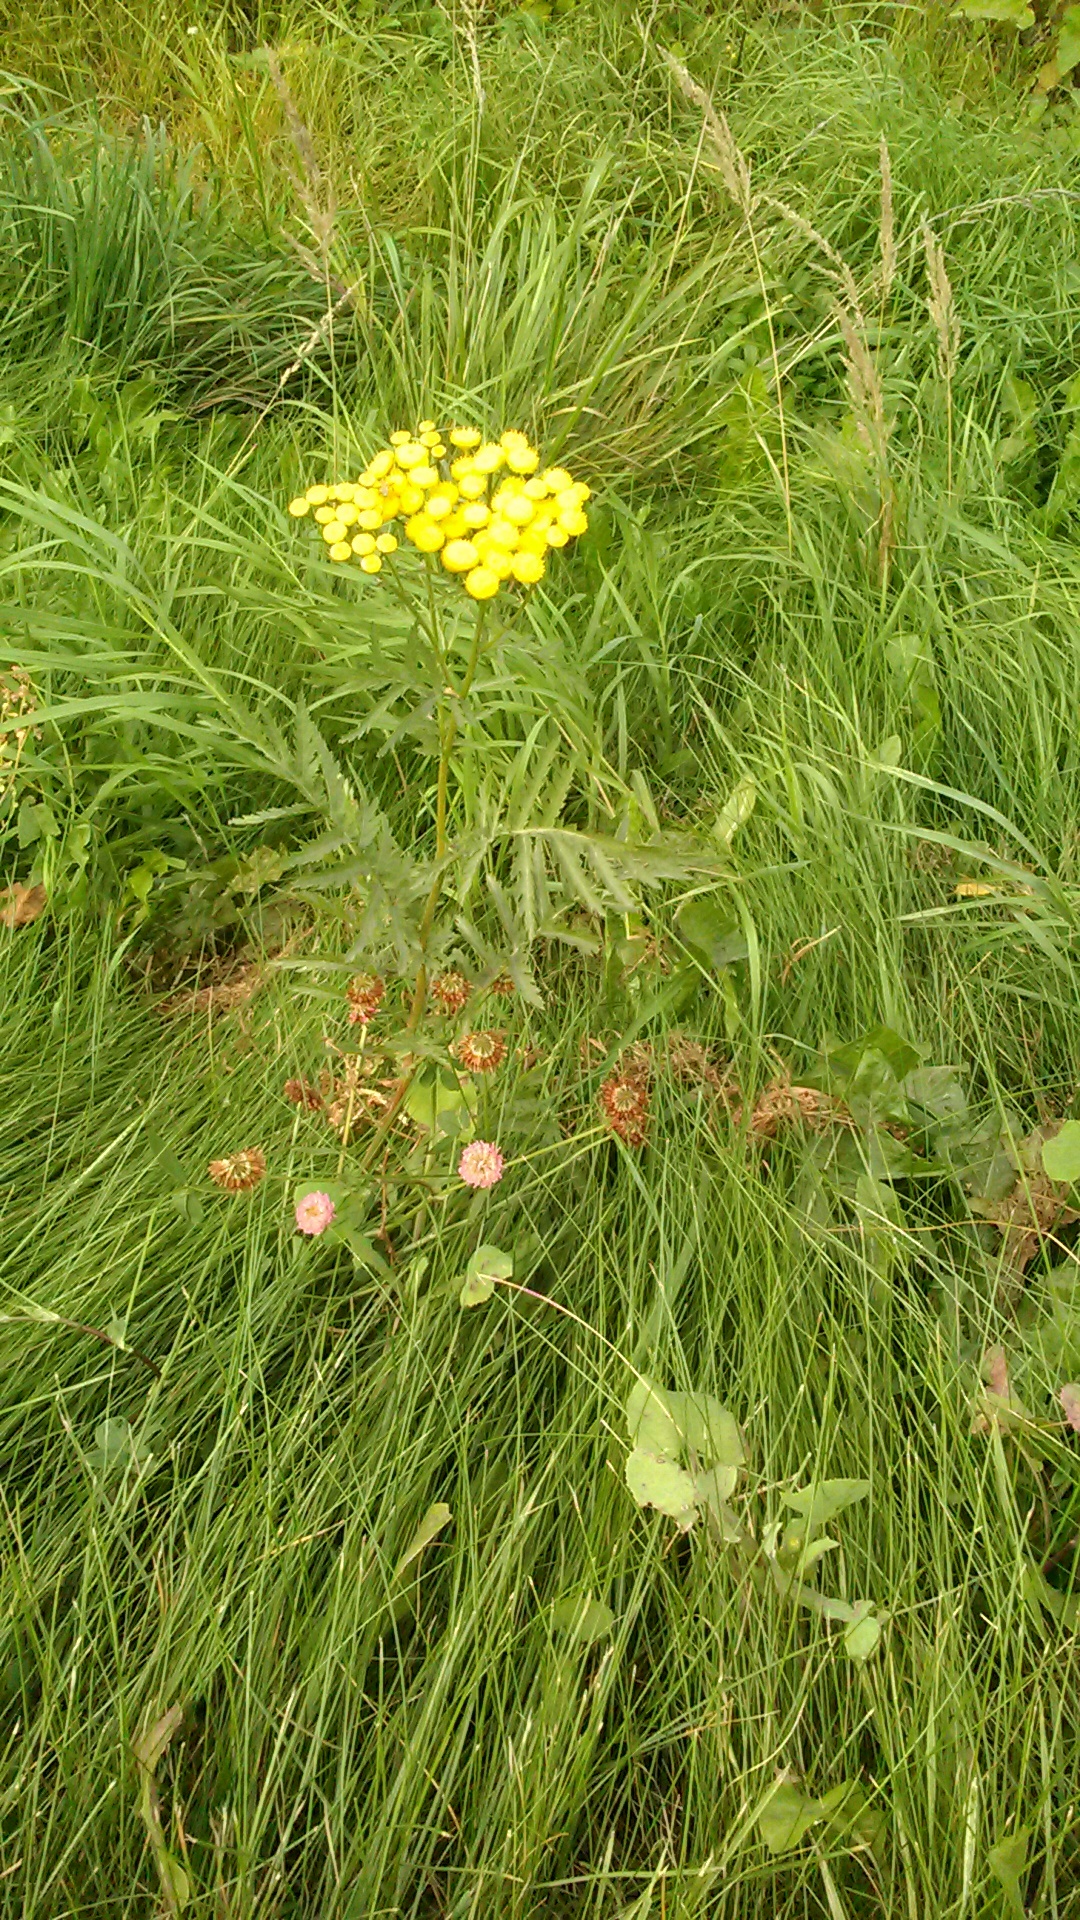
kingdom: Plantae
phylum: Tracheophyta
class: Magnoliopsida
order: Asterales
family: Asteraceae
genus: Tanacetum
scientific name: Tanacetum vulgare
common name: Common tansy
